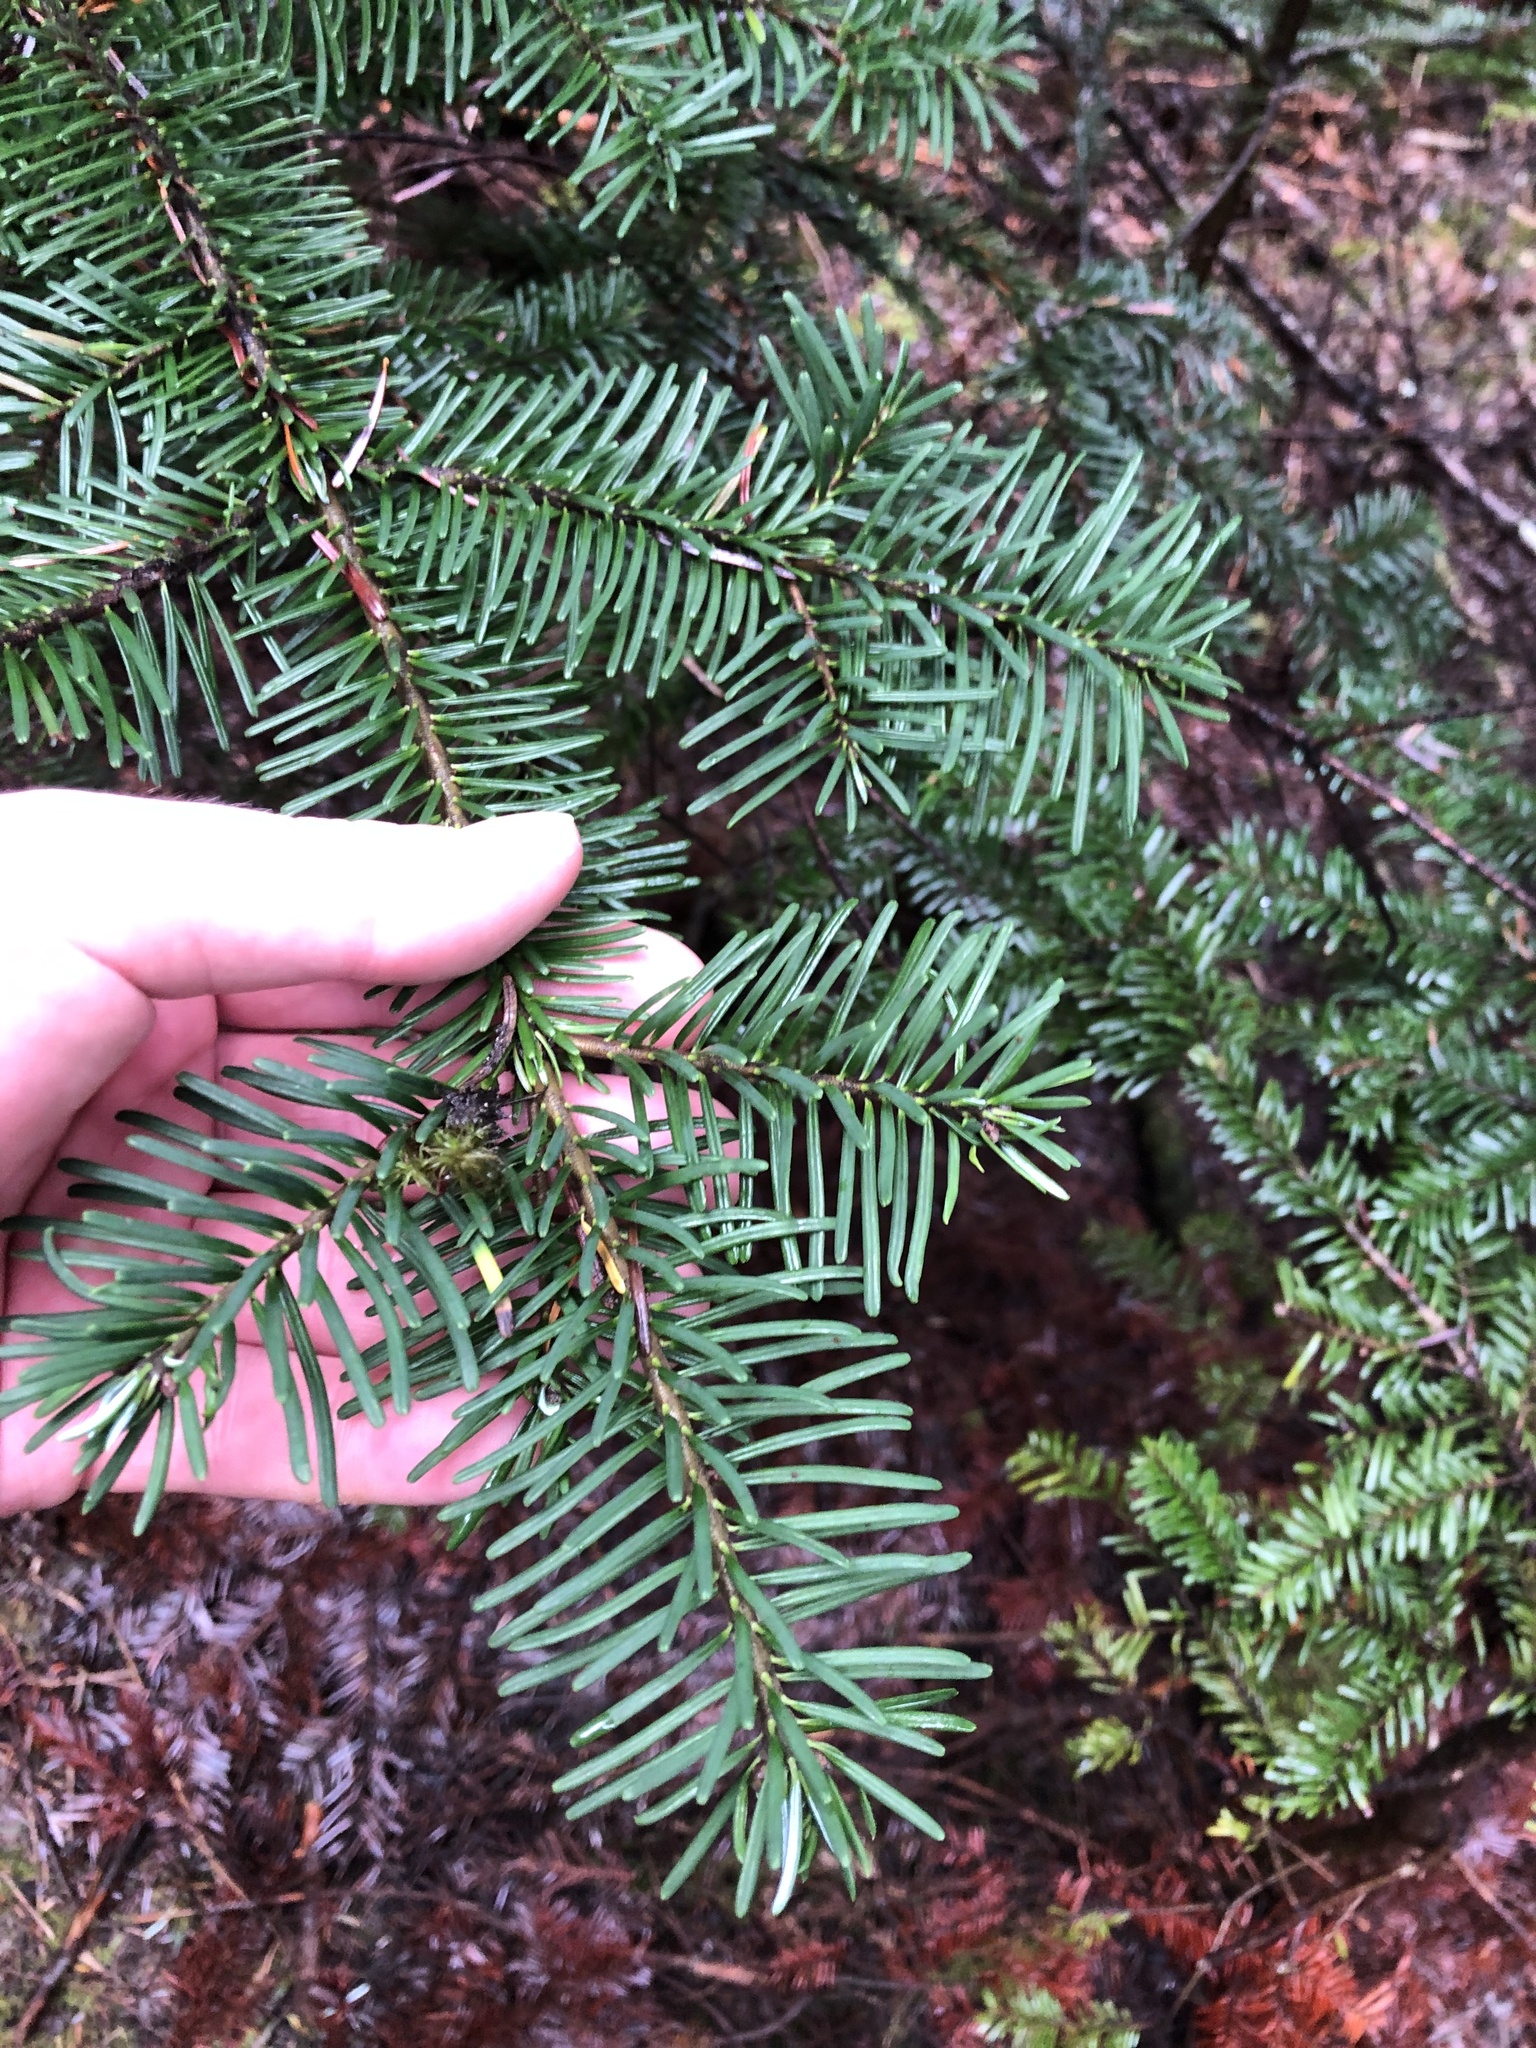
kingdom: Plantae
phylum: Tracheophyta
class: Pinopsida
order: Pinales
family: Pinaceae
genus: Abies
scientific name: Abies amabilis
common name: Pacific silver fir
